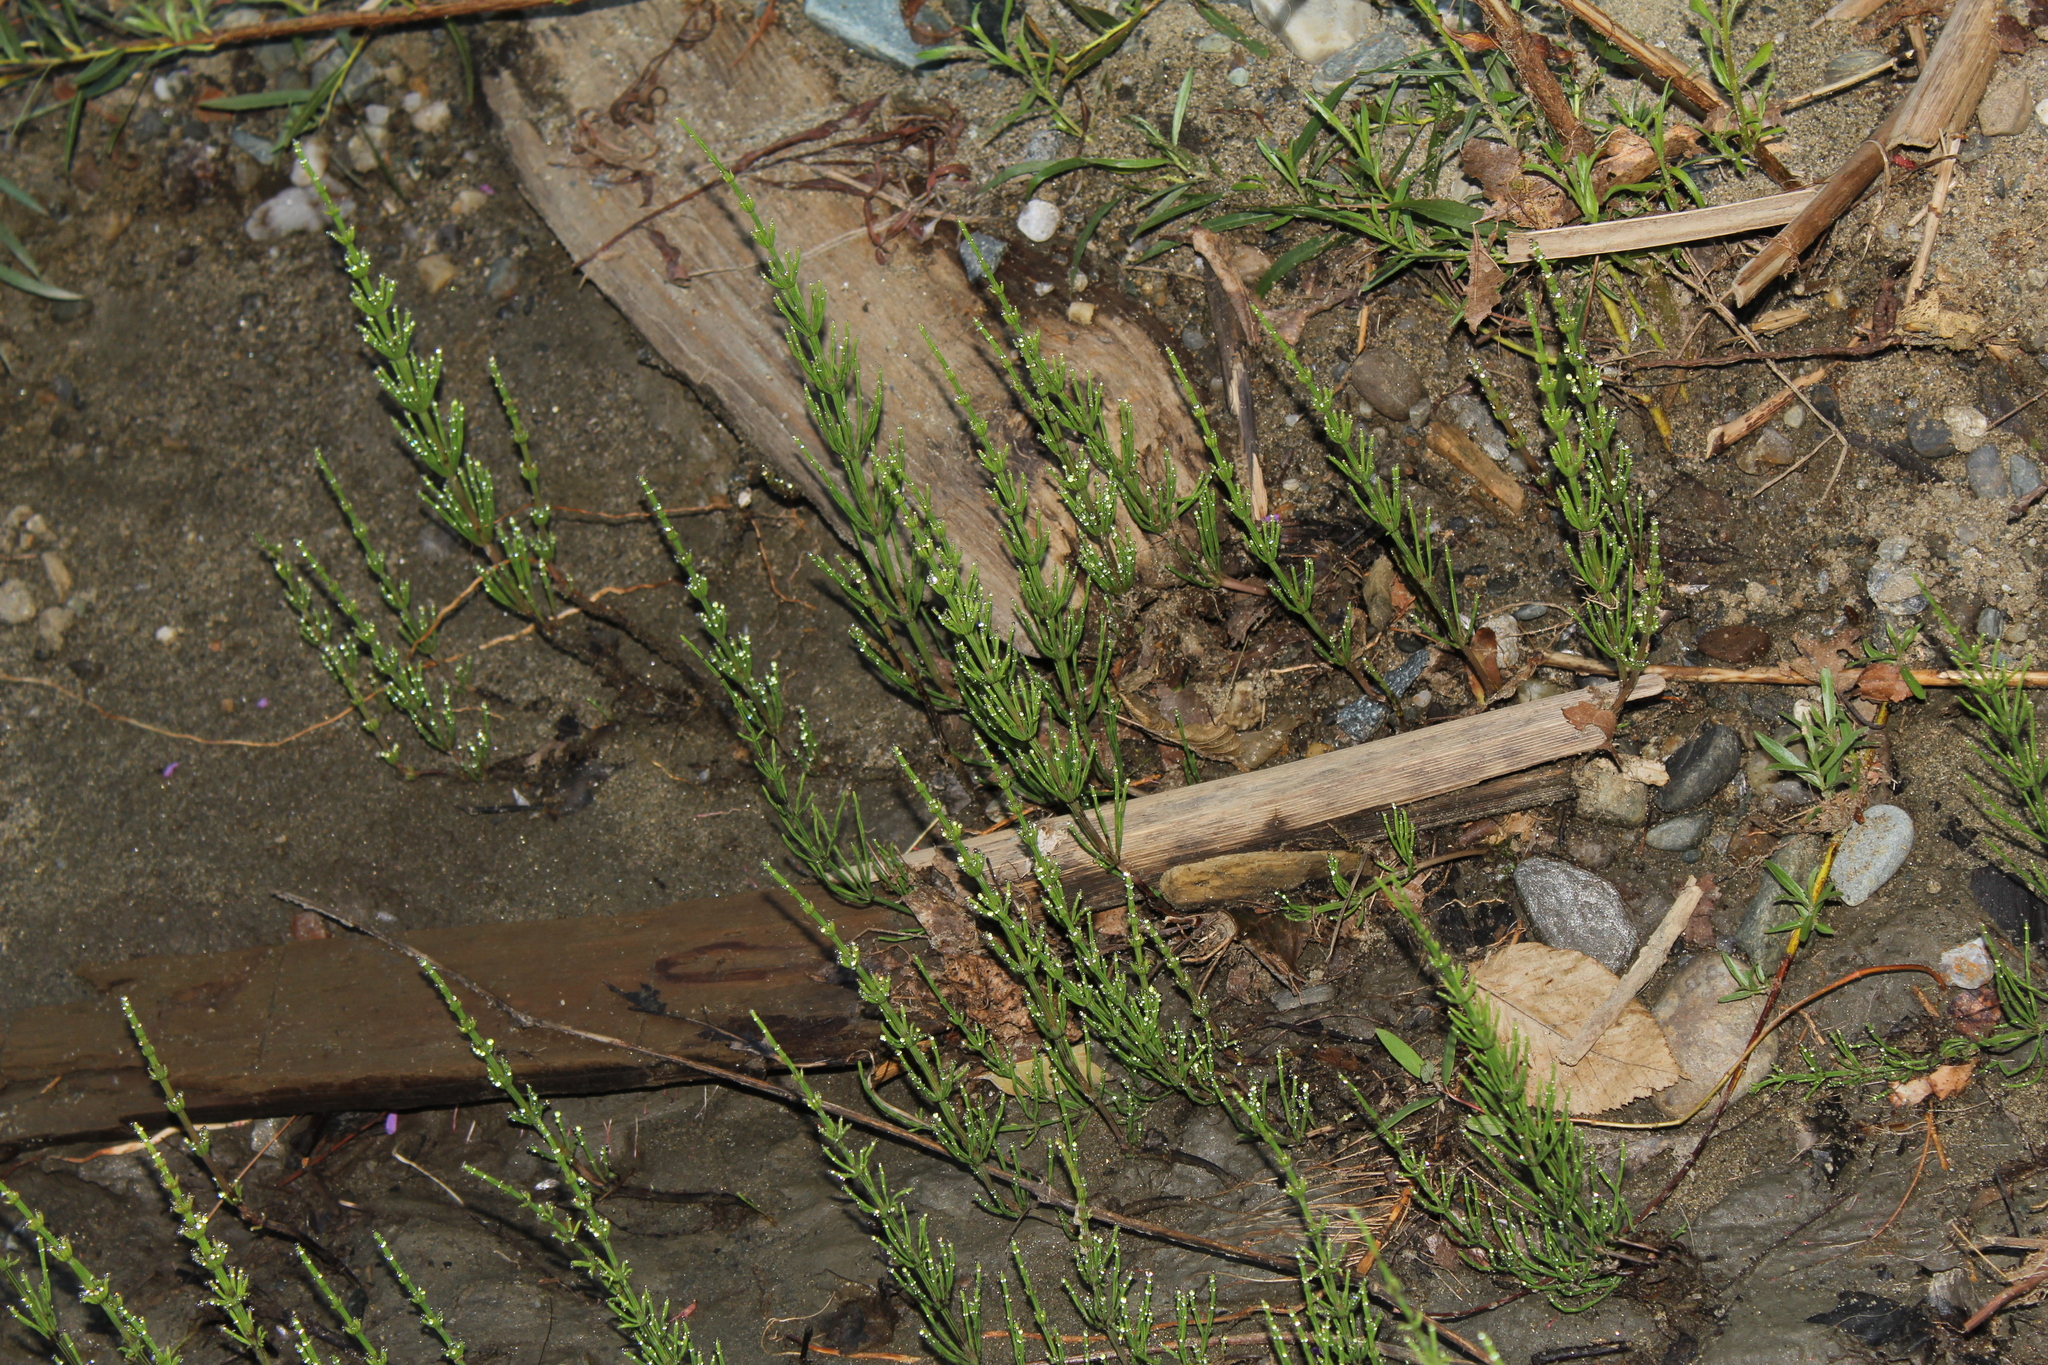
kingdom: Plantae
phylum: Tracheophyta
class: Polypodiopsida
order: Equisetales
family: Equisetaceae
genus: Equisetum
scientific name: Equisetum arvense
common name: Field horsetail
